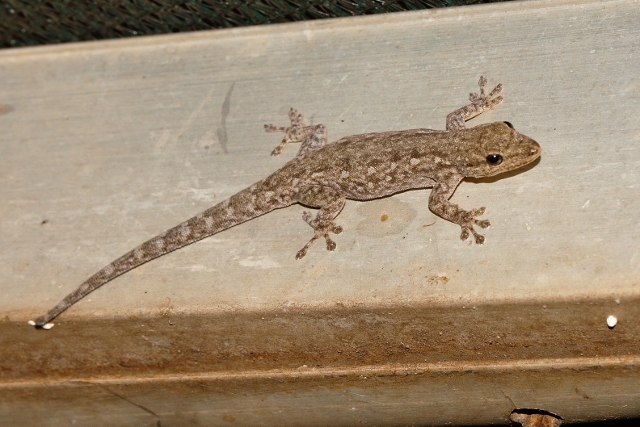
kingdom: Animalia
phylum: Chordata
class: Squamata
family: Gekkonidae
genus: Lygodactylus
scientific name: Lygodactylus chobiensis
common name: Okavango dwarf gecko
